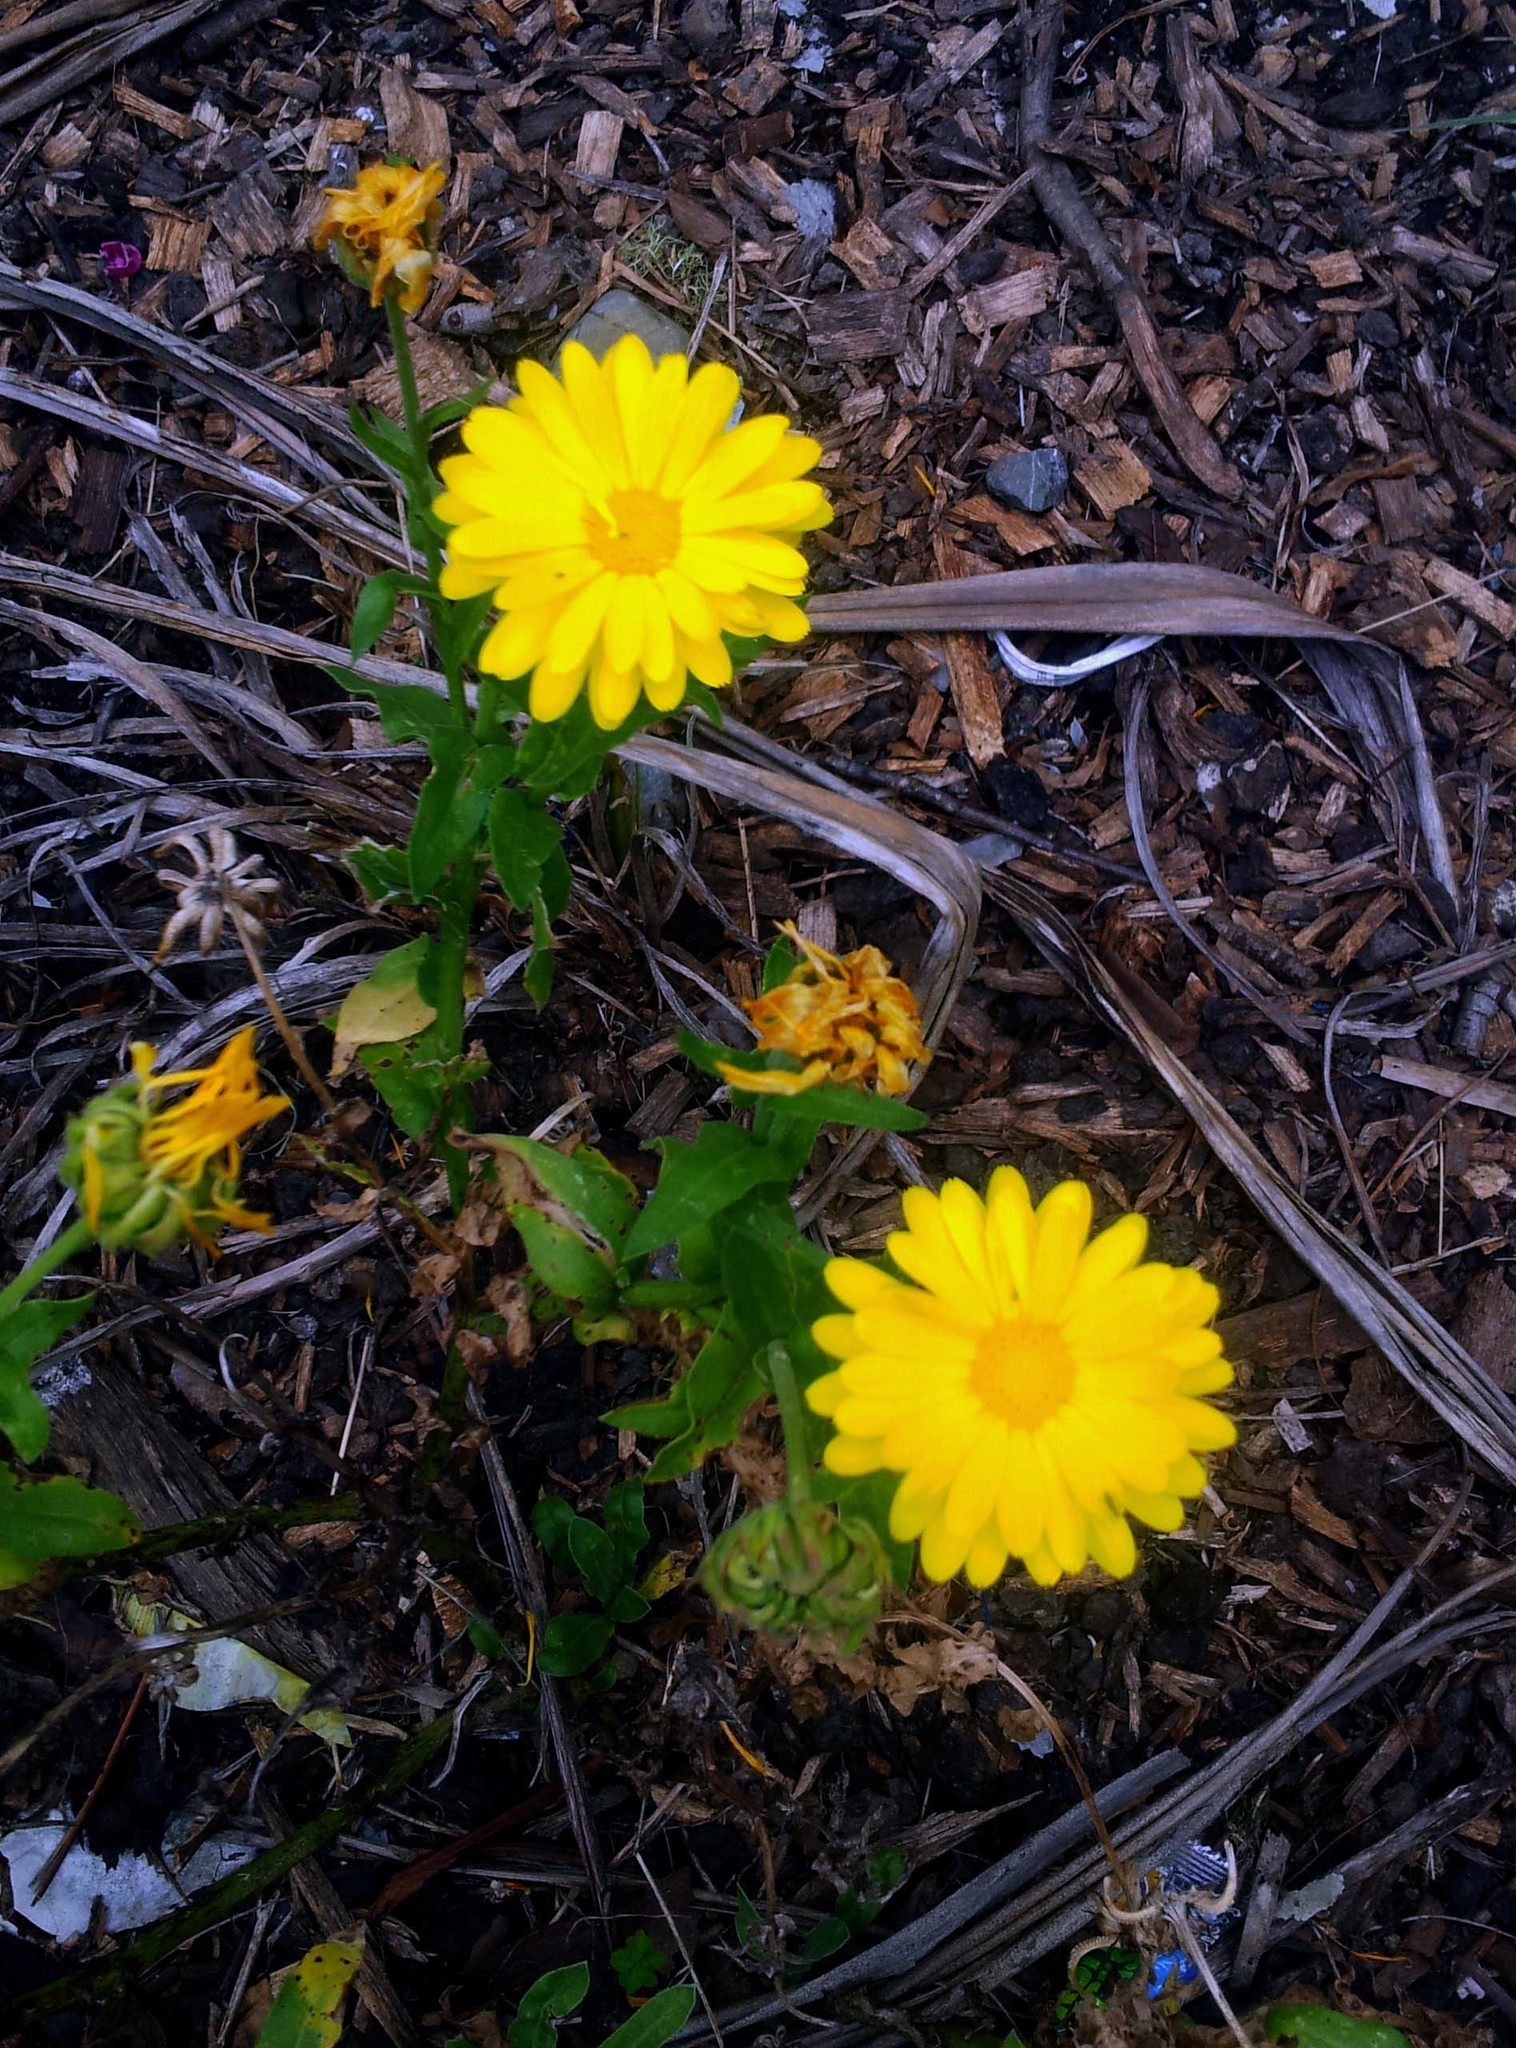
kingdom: Plantae
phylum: Tracheophyta
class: Magnoliopsida
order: Asterales
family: Asteraceae
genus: Calendula
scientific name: Calendula officinalis
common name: Pot marigold
